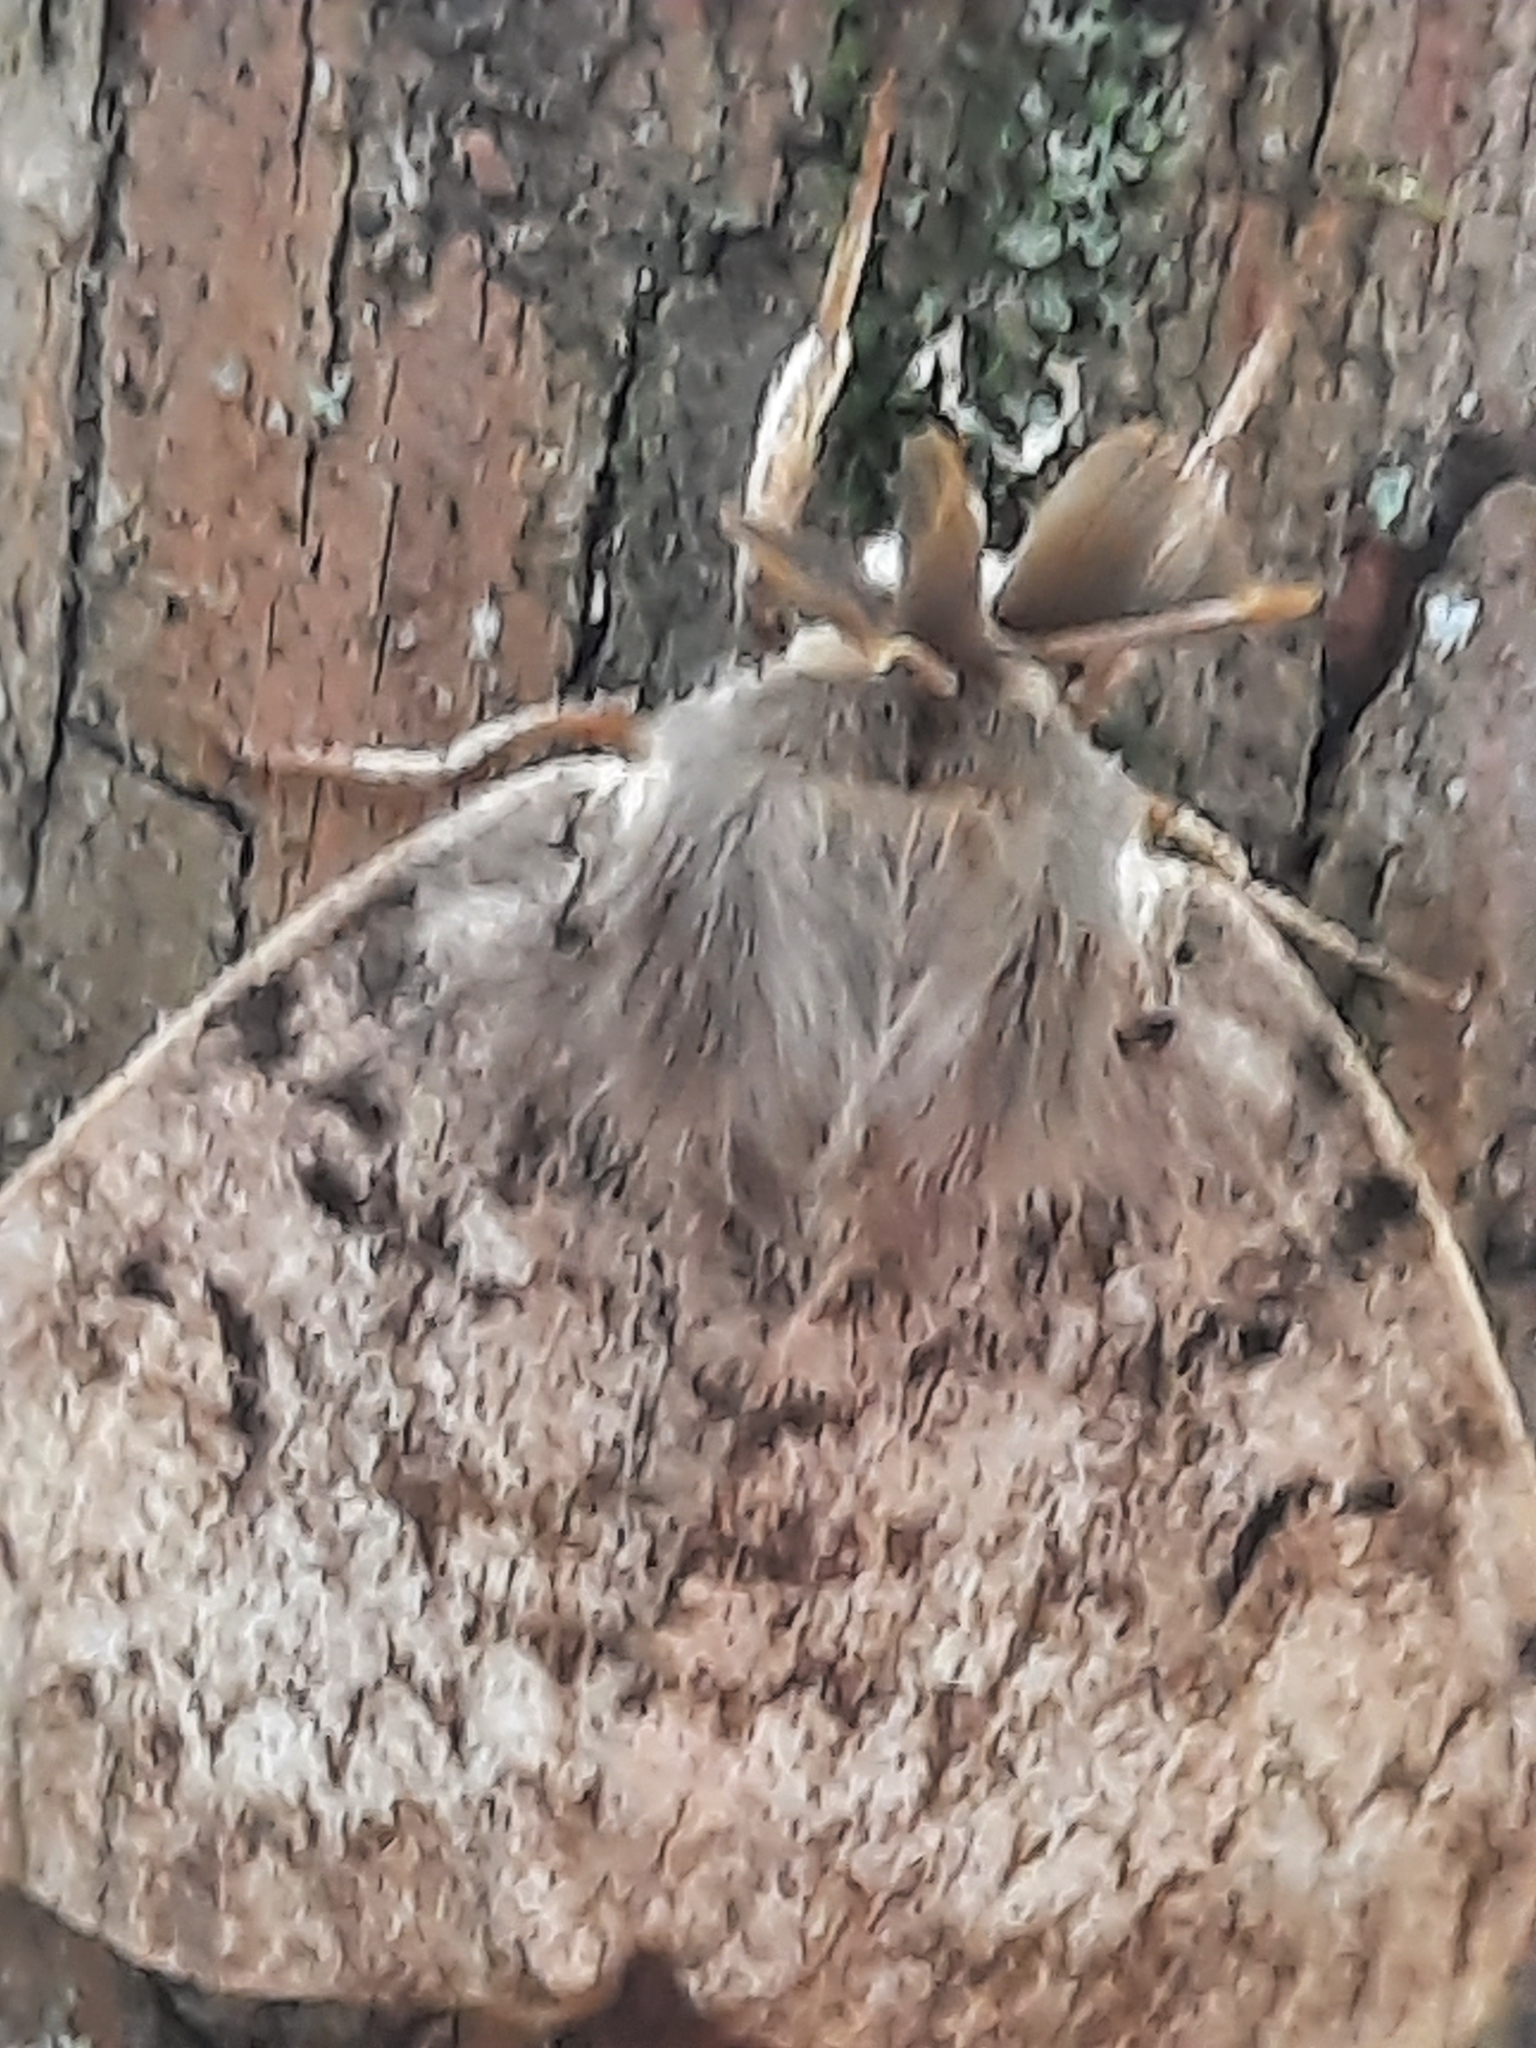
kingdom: Animalia
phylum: Arthropoda
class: Insecta
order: Lepidoptera
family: Erebidae
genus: Lymantria
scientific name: Lymantria dispar
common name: Gypsy moth
